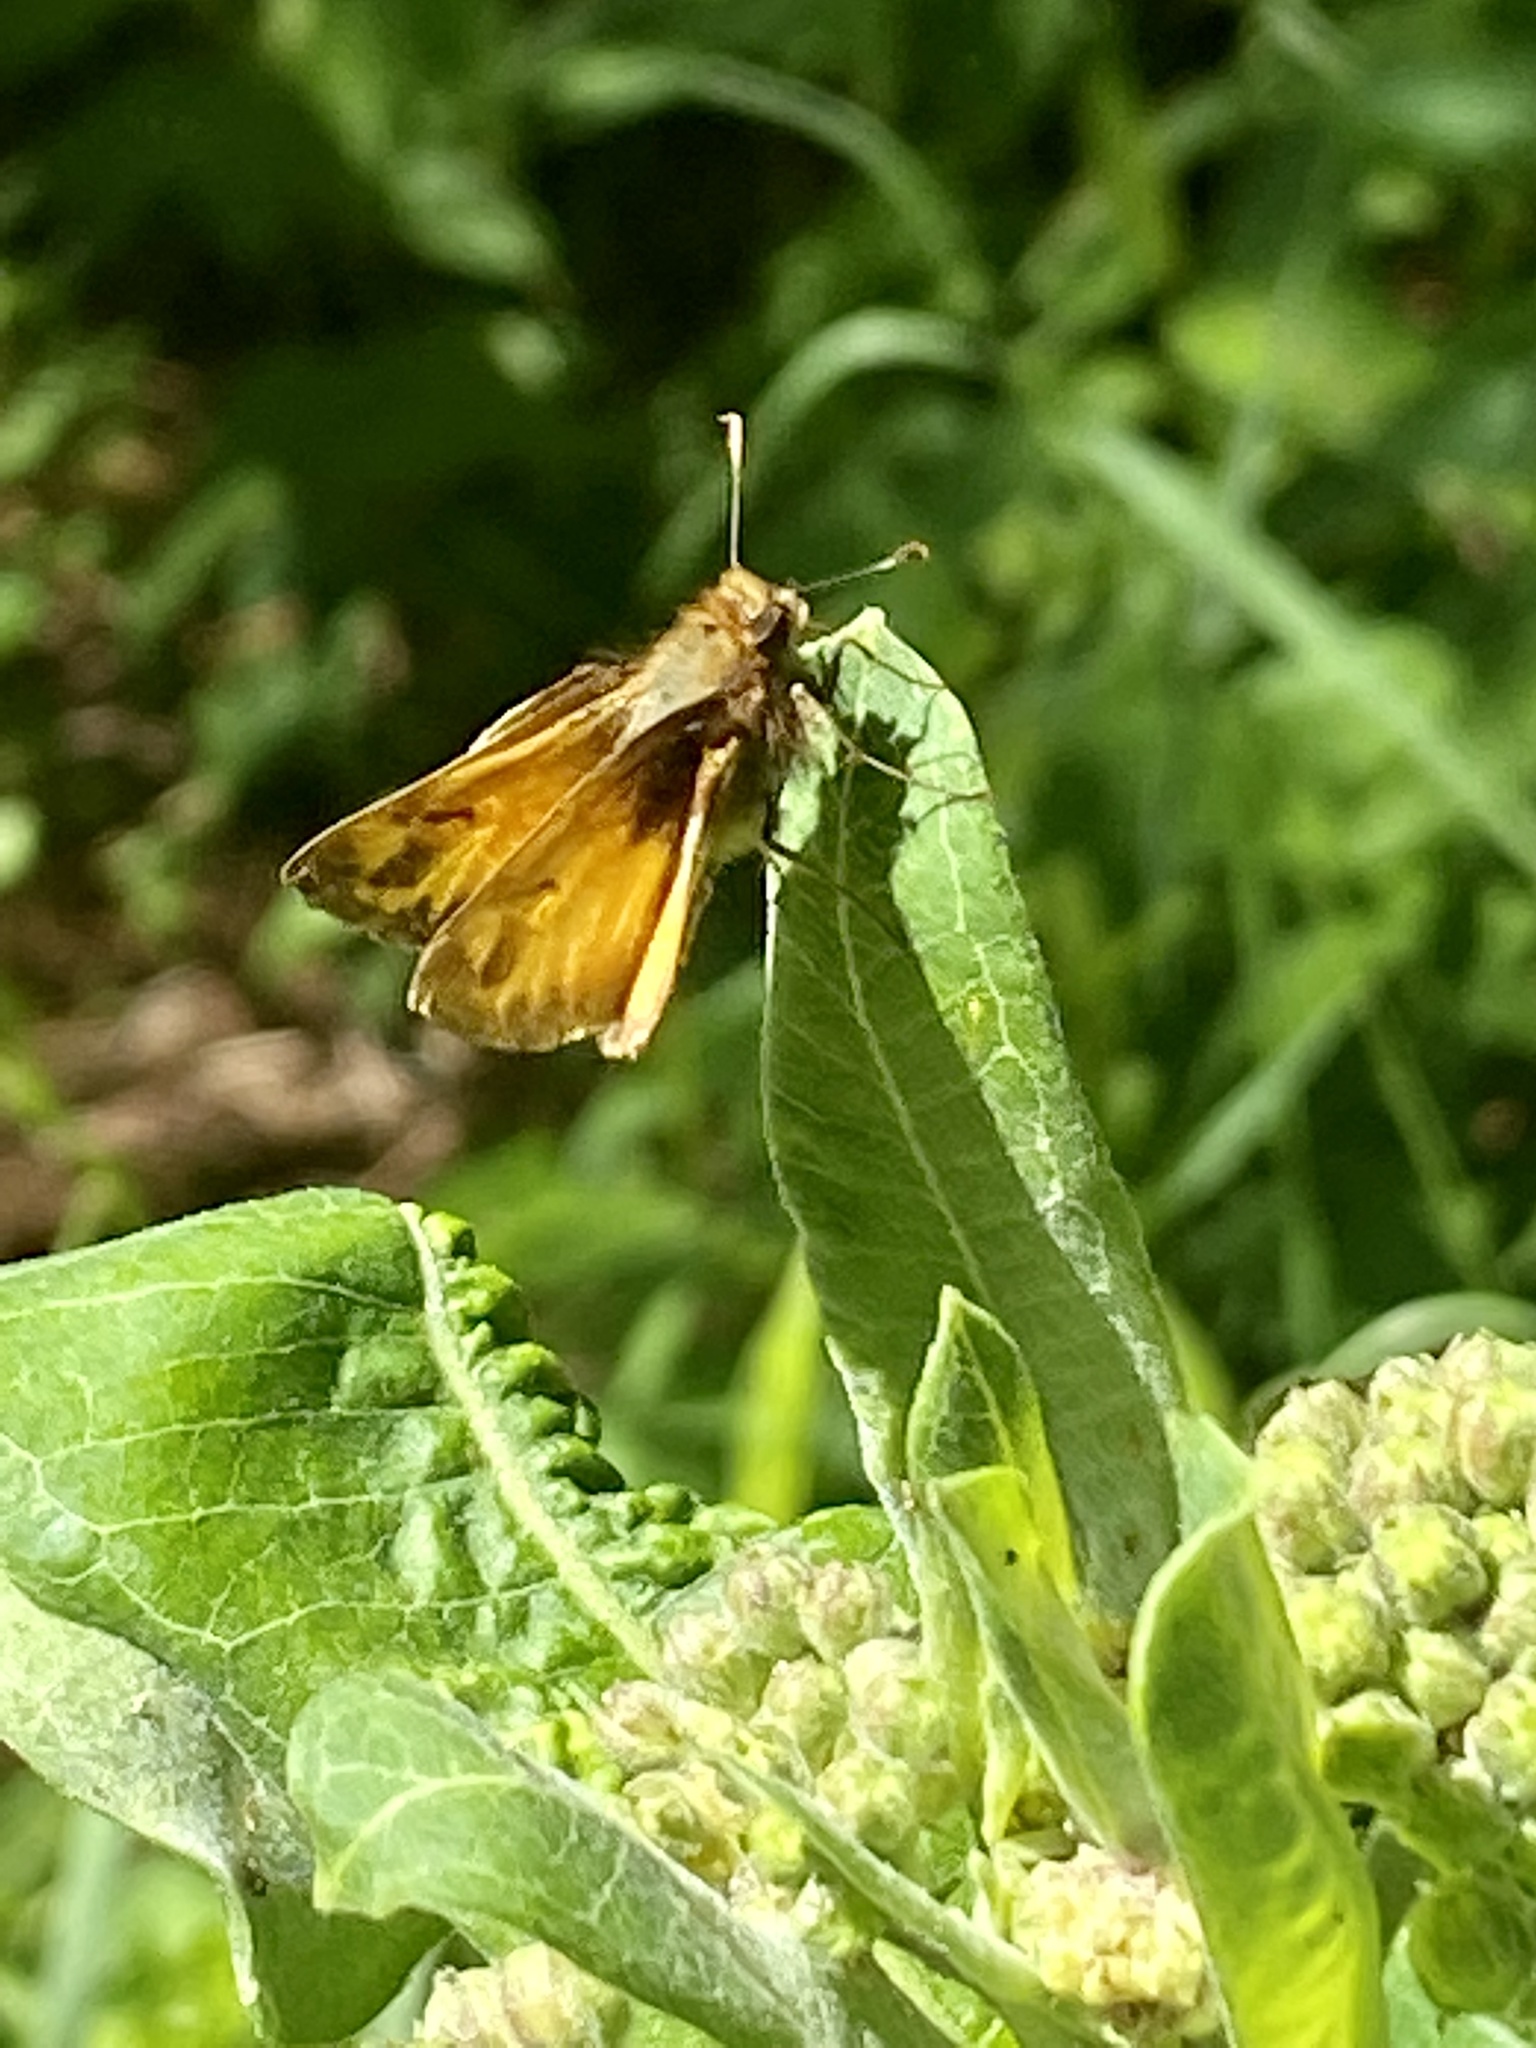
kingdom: Animalia
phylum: Arthropoda
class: Insecta
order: Lepidoptera
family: Hesperiidae
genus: Lon
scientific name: Lon zabulon
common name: Zabulon skipper
